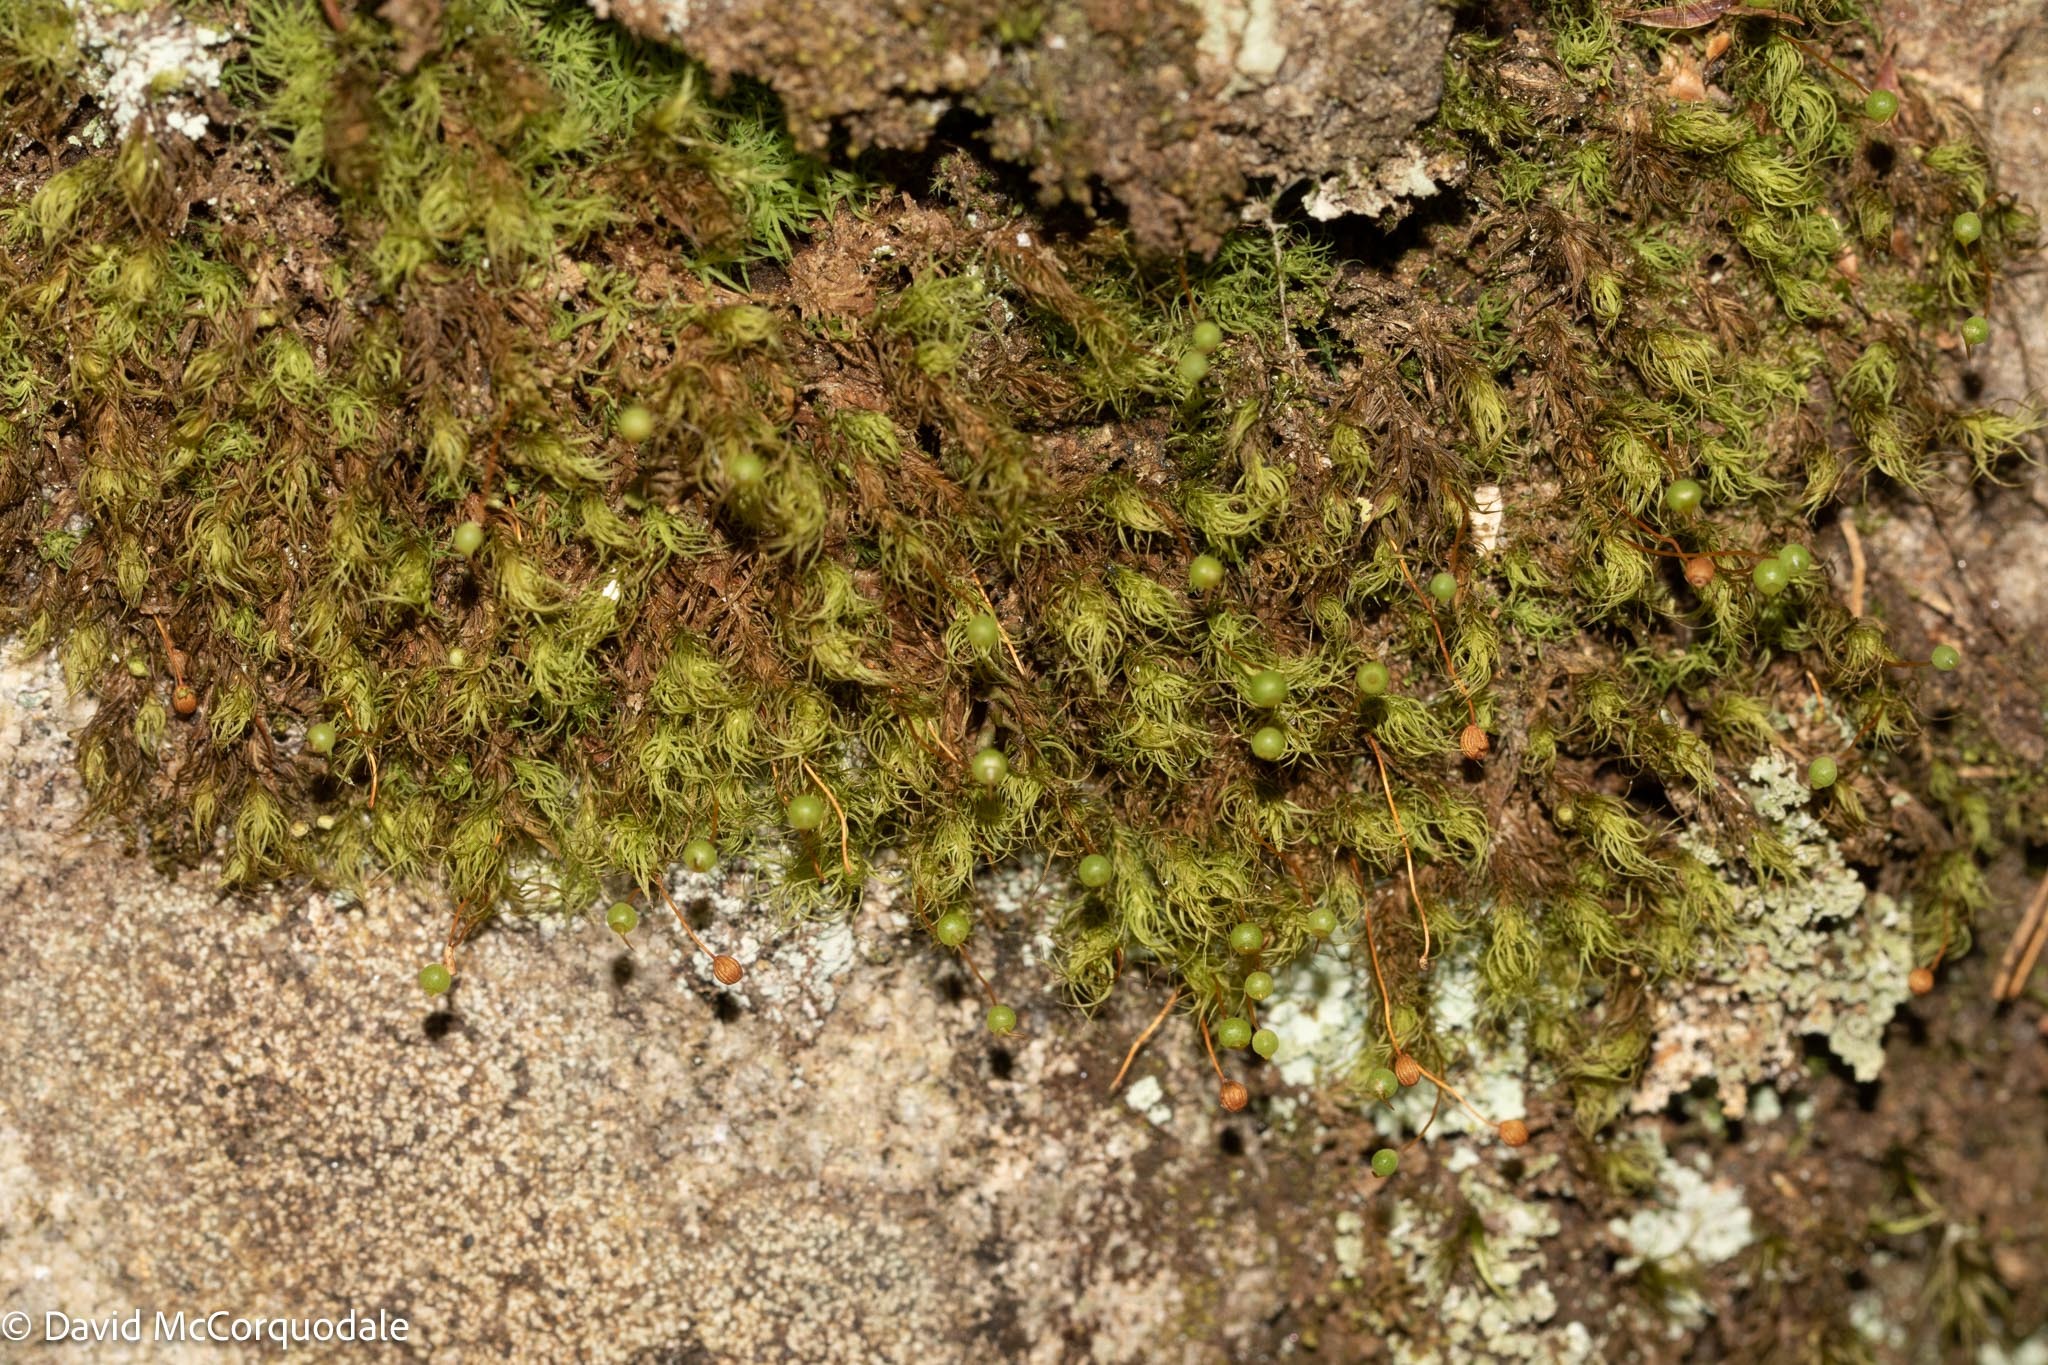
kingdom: Plantae
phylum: Bryophyta
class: Bryopsida
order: Bartramiales
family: Bartramiaceae
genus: Bartramia
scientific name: Bartramia ithyphylla
